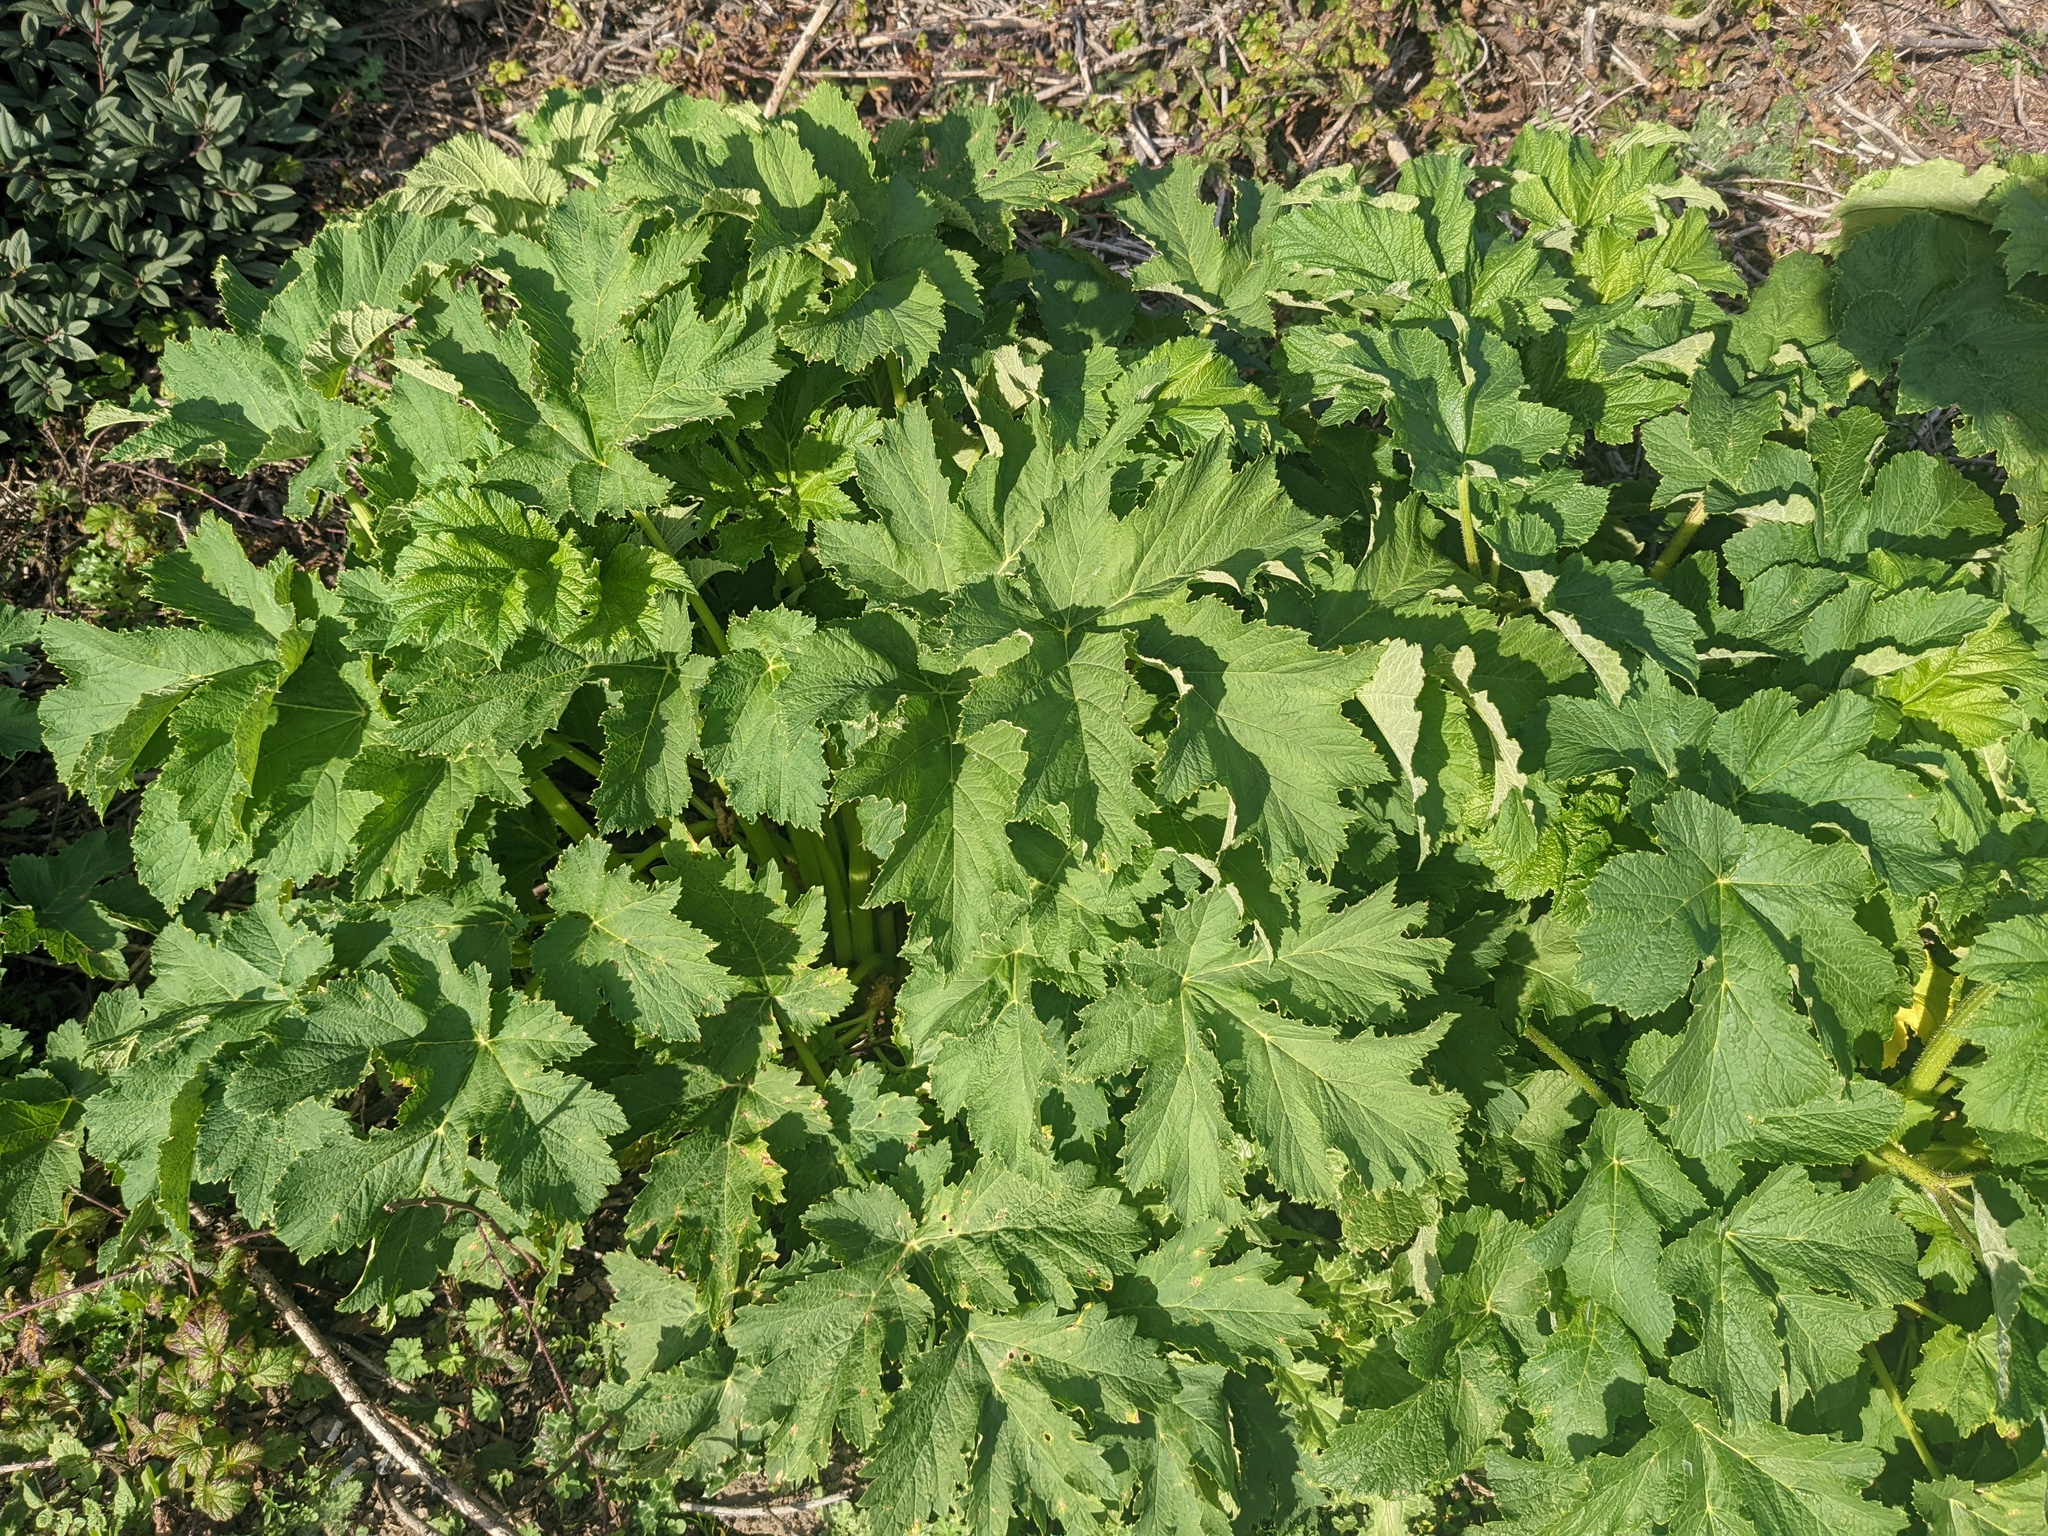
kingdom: Plantae
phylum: Tracheophyta
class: Magnoliopsida
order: Apiales
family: Apiaceae
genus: Heracleum
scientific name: Heracleum maximum
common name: American cow parsnip
